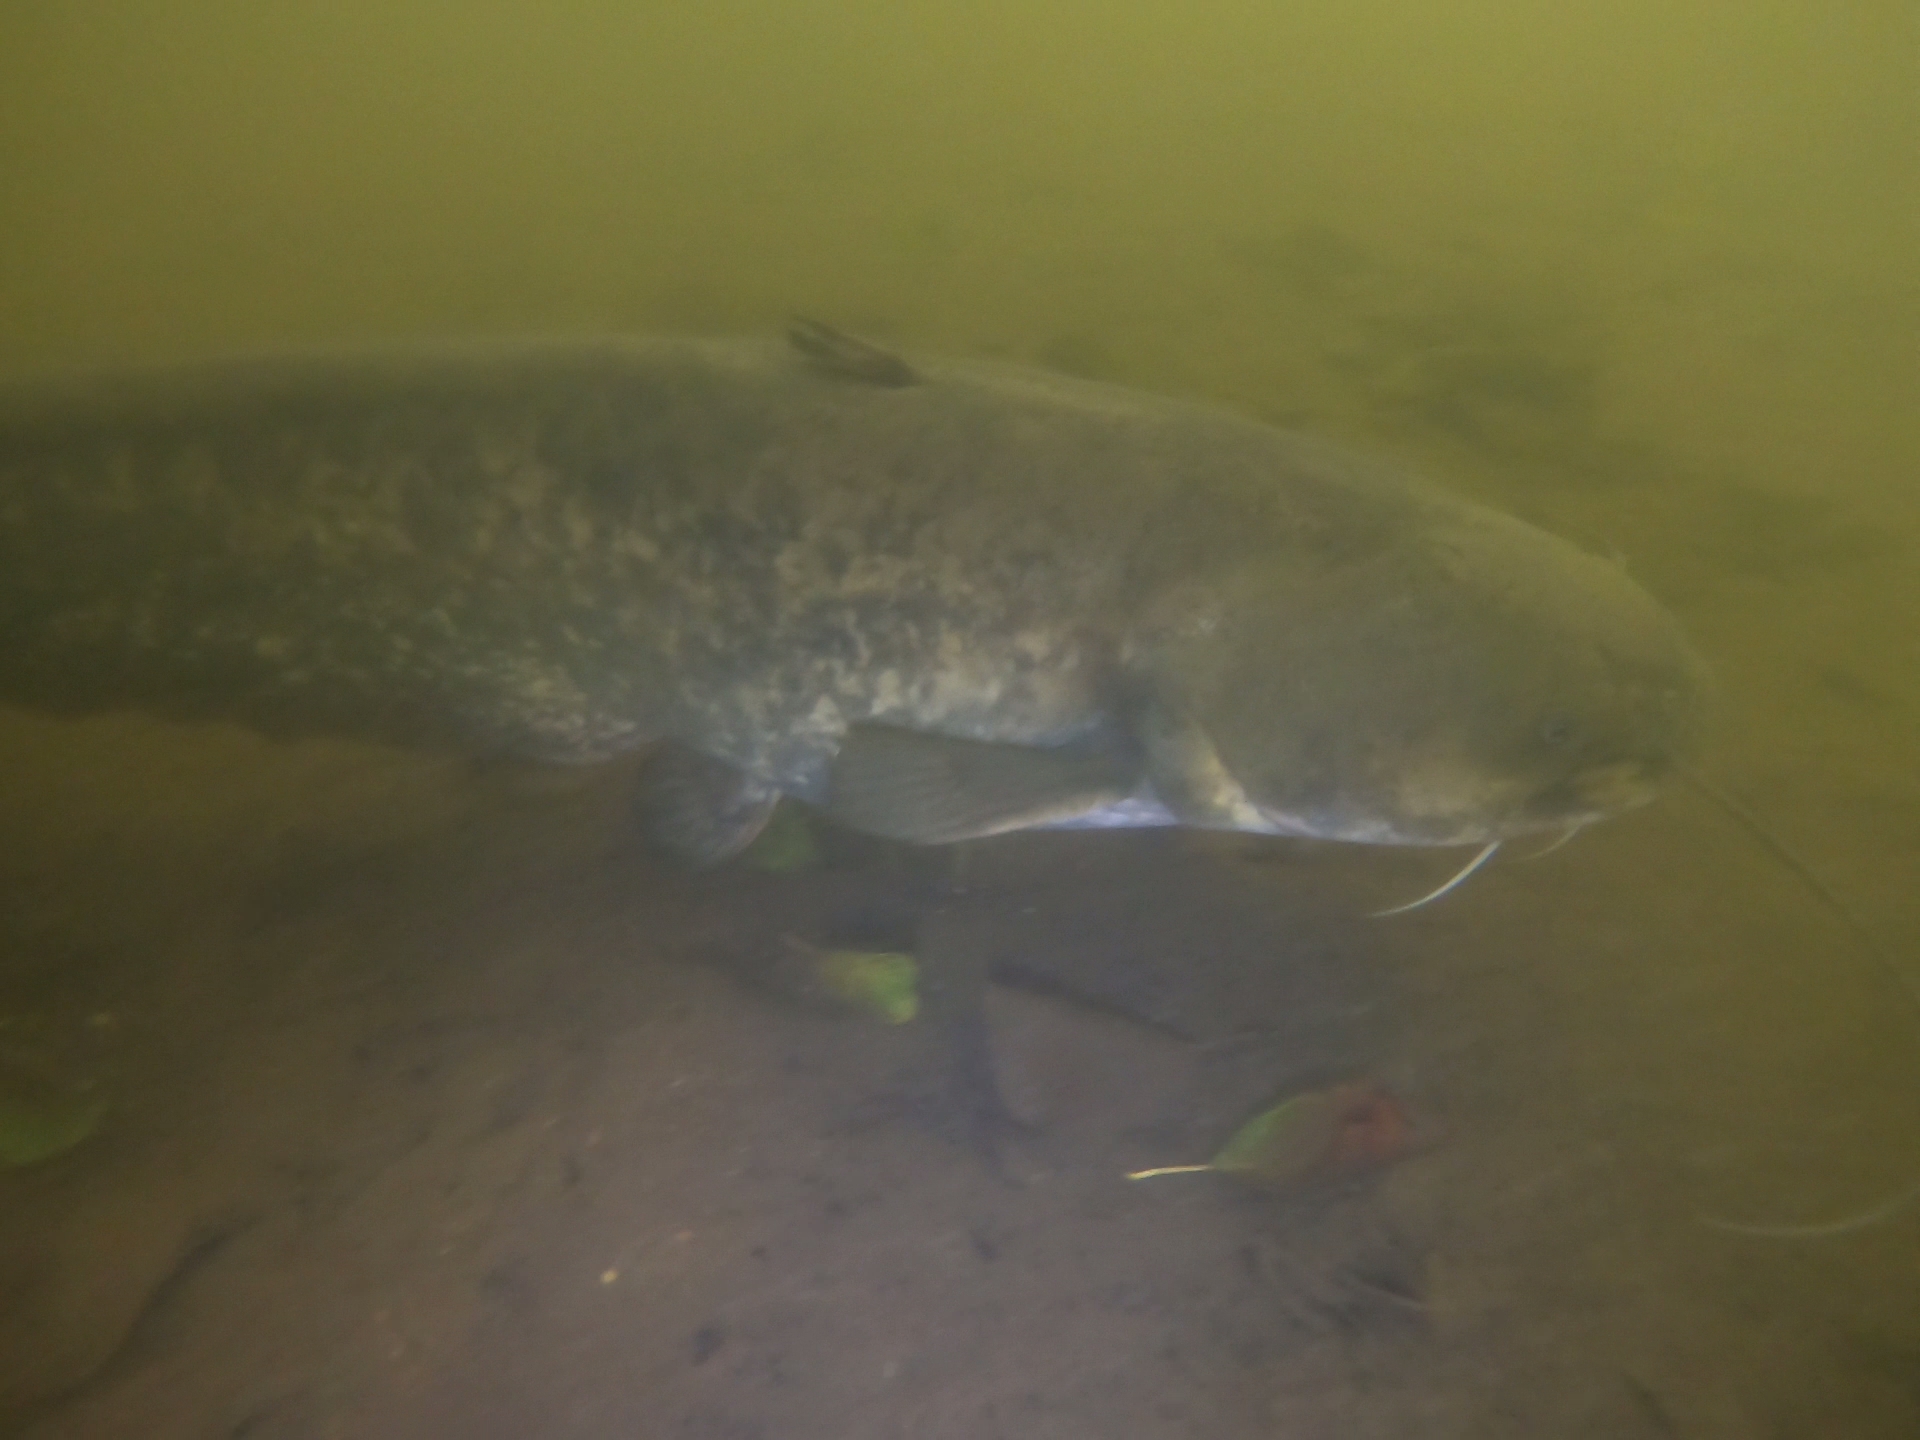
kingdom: Animalia
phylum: Chordata
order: Siluriformes
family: Siluridae
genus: Silurus
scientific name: Silurus glanis
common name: Wels
